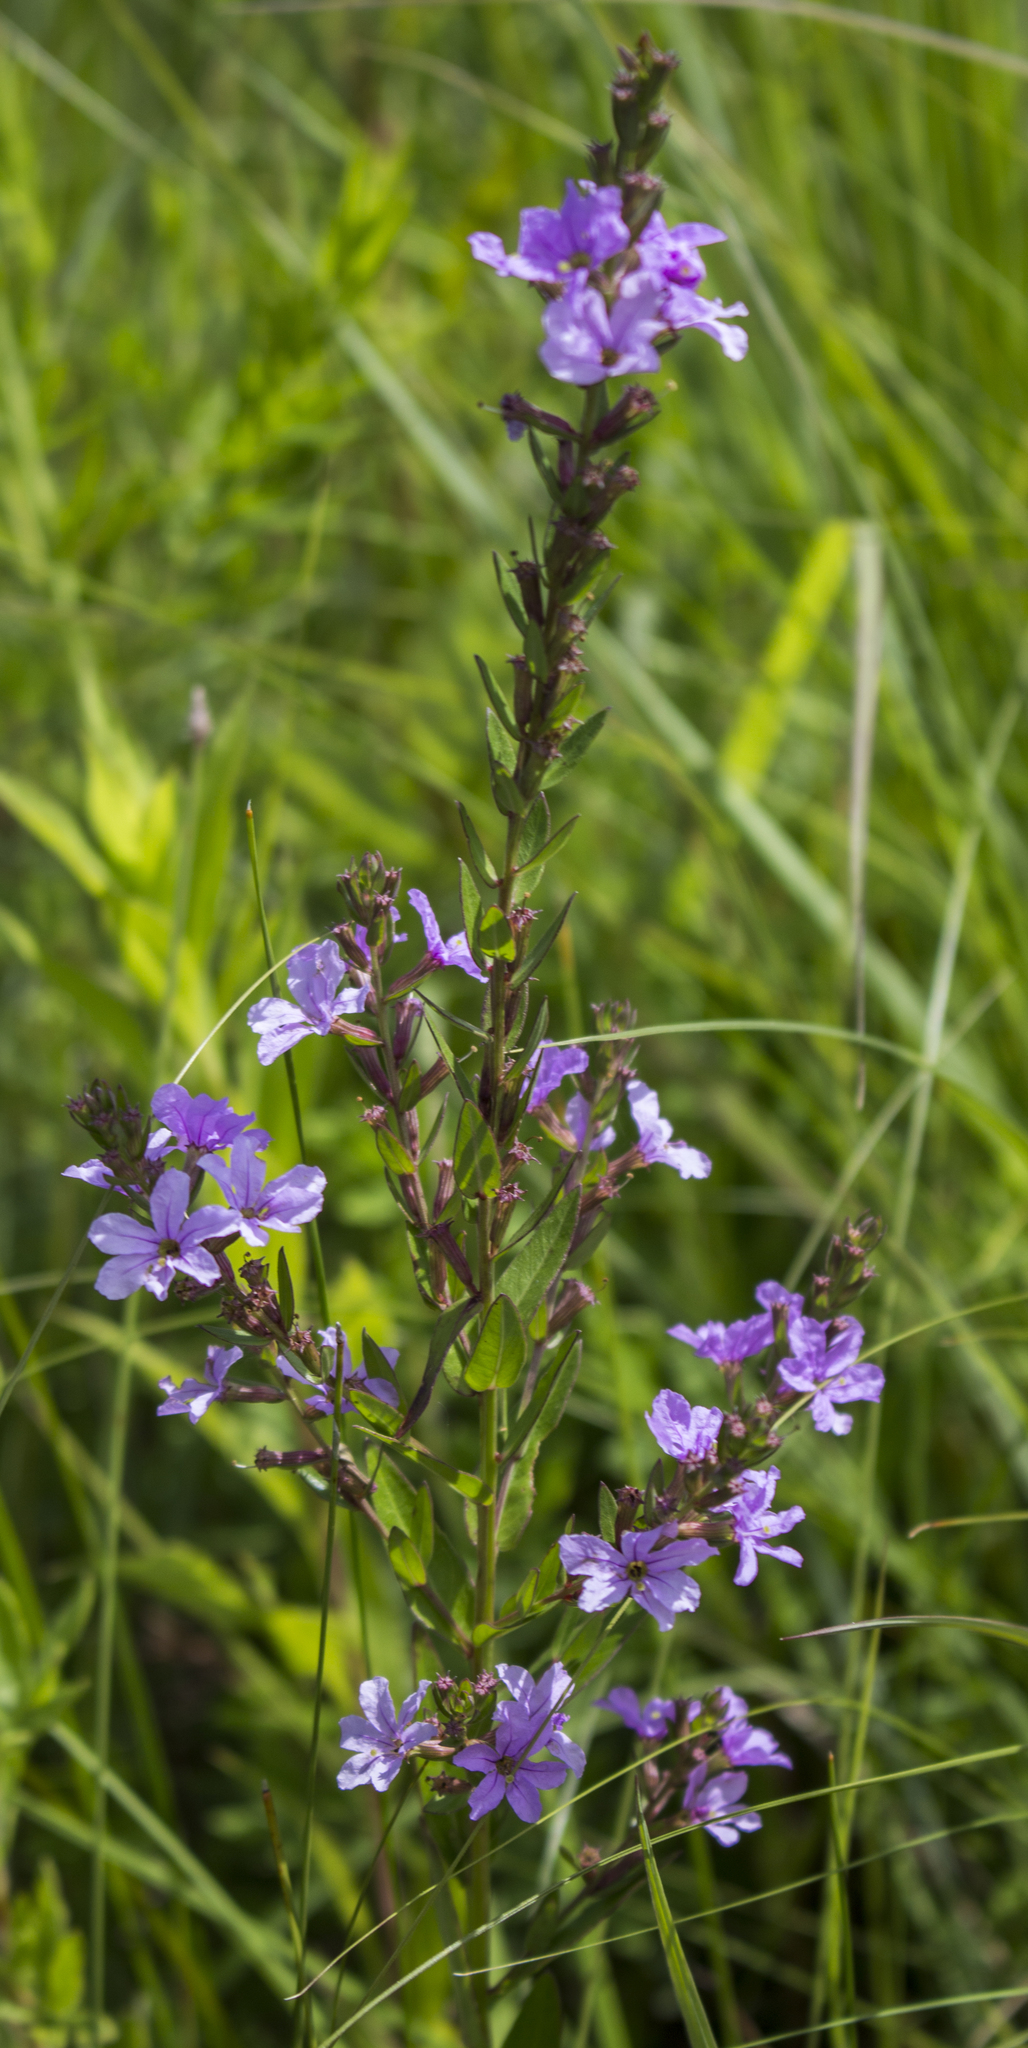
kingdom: Plantae
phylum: Tracheophyta
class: Magnoliopsida
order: Myrtales
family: Lythraceae
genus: Lythrum
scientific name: Lythrum alatum
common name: Winged loosestrife
